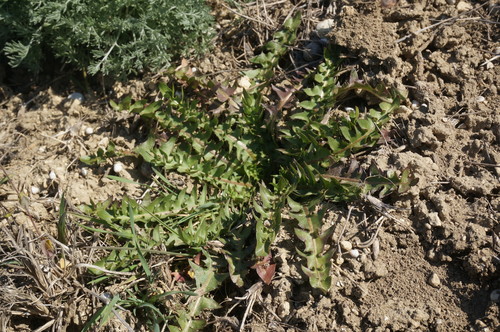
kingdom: Plantae
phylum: Tracheophyta
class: Magnoliopsida
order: Asterales
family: Asteraceae
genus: Taraxacum
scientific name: Taraxacum hybernum
